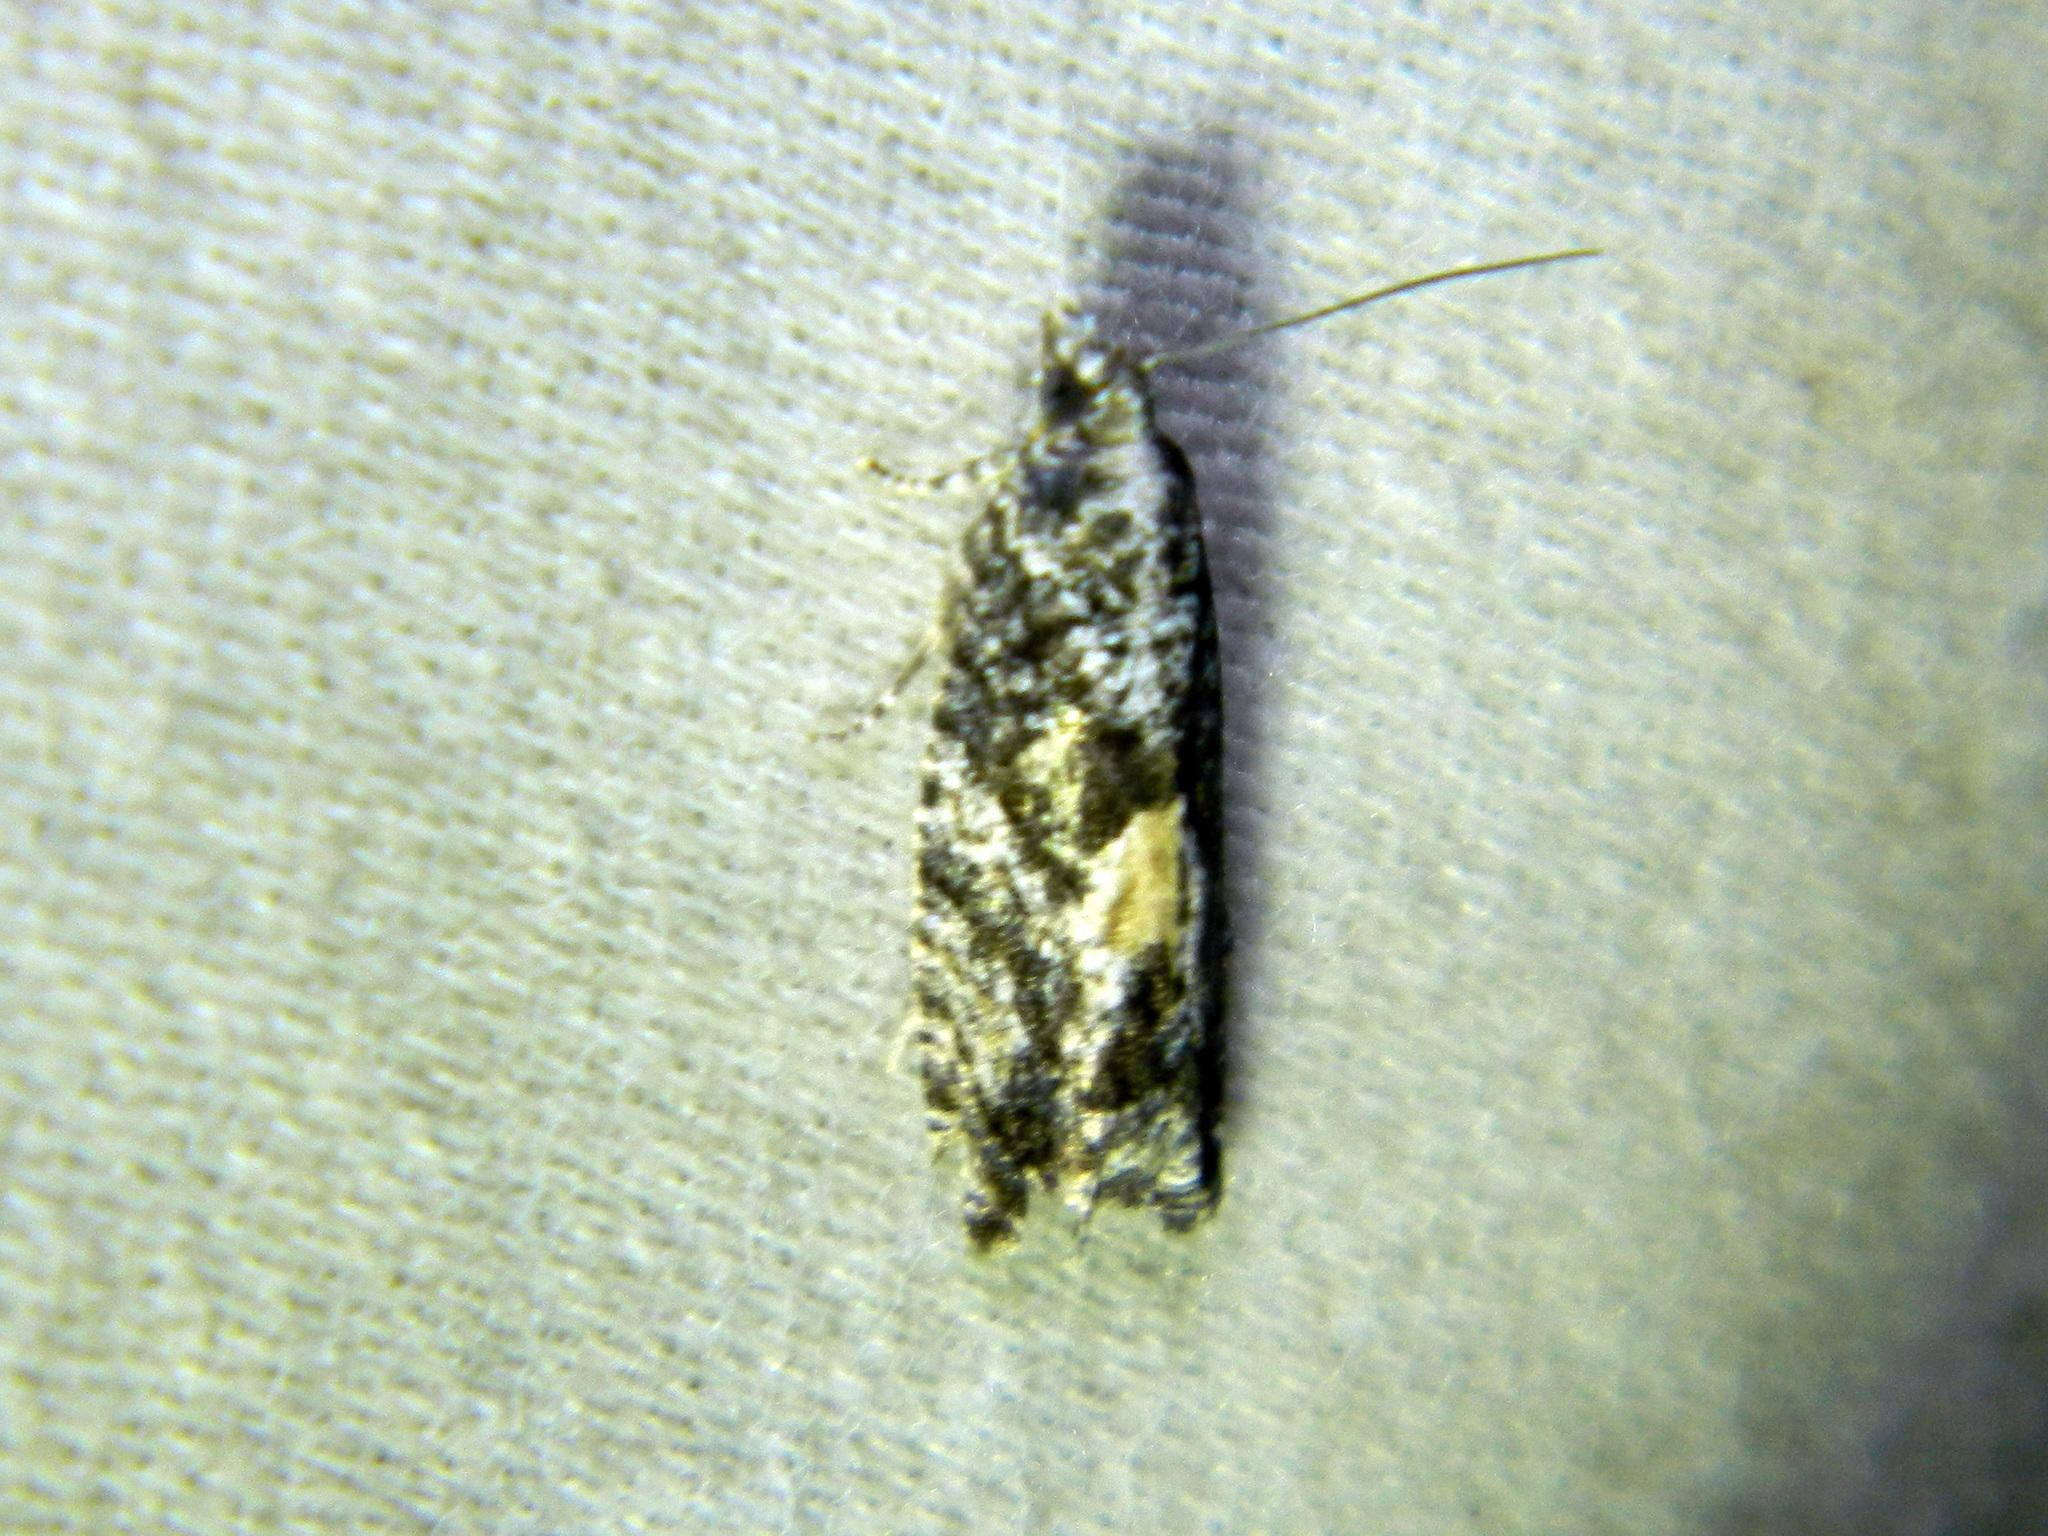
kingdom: Animalia
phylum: Arthropoda
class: Insecta
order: Lepidoptera
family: Tortricidae
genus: Epinotia
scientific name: Epinotia nisella
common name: Grey poplar bell
